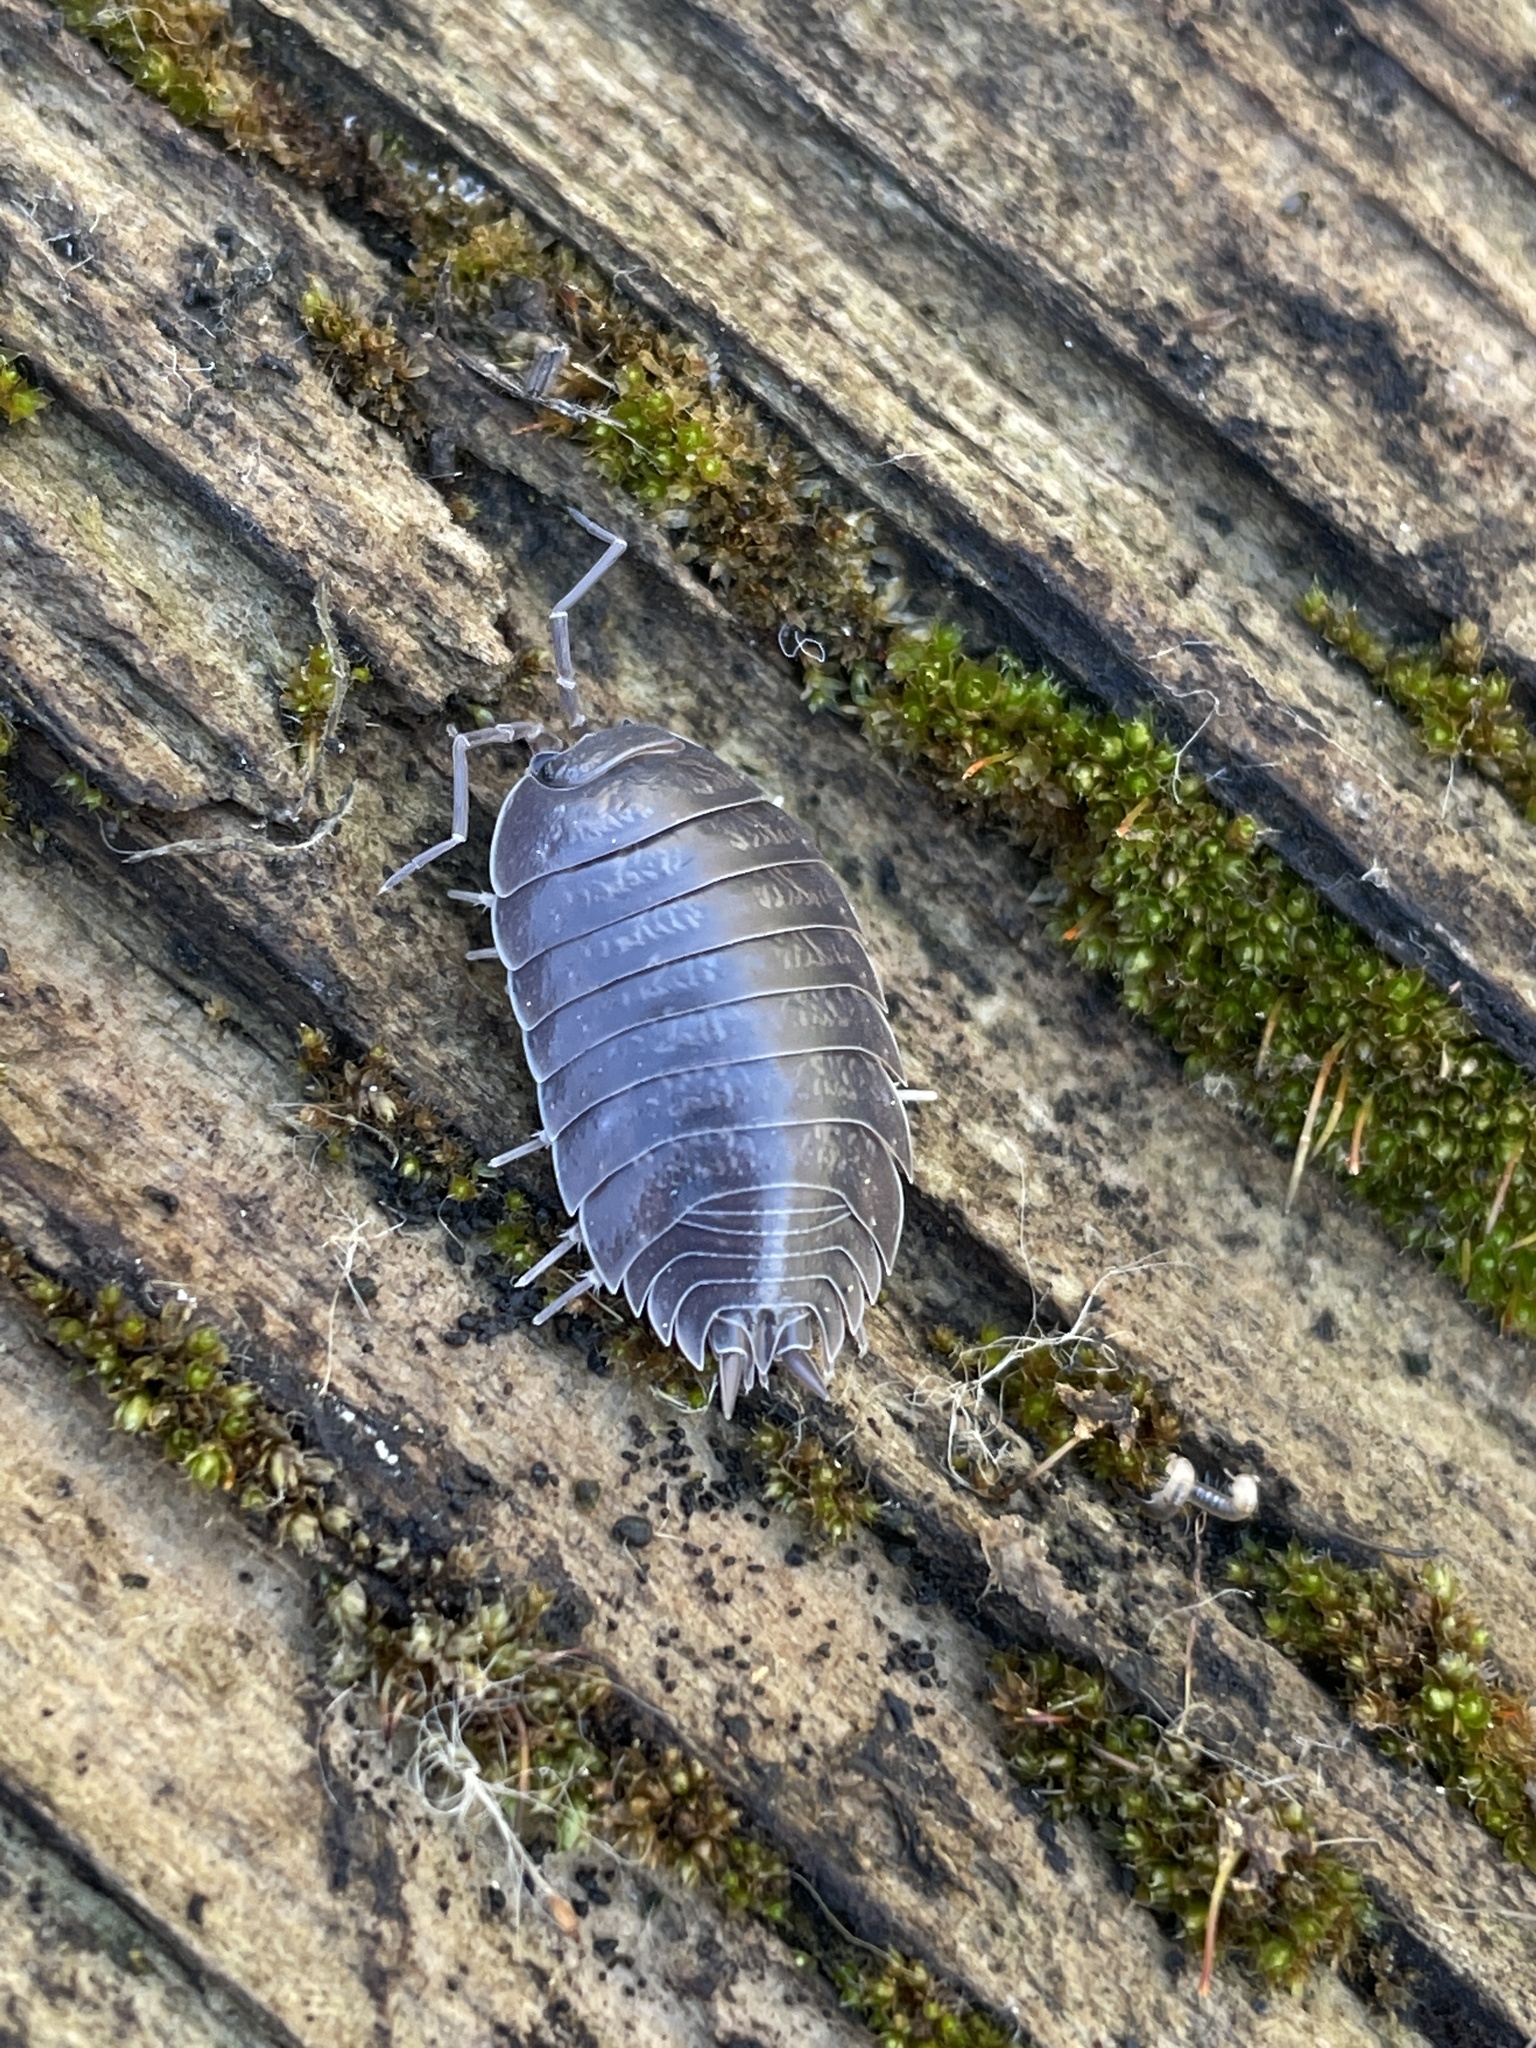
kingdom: Animalia
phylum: Arthropoda
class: Malacostraca
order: Isopoda
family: Porcellionidae
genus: Porcellio
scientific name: Porcellio laevis
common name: Swift woodlouse
